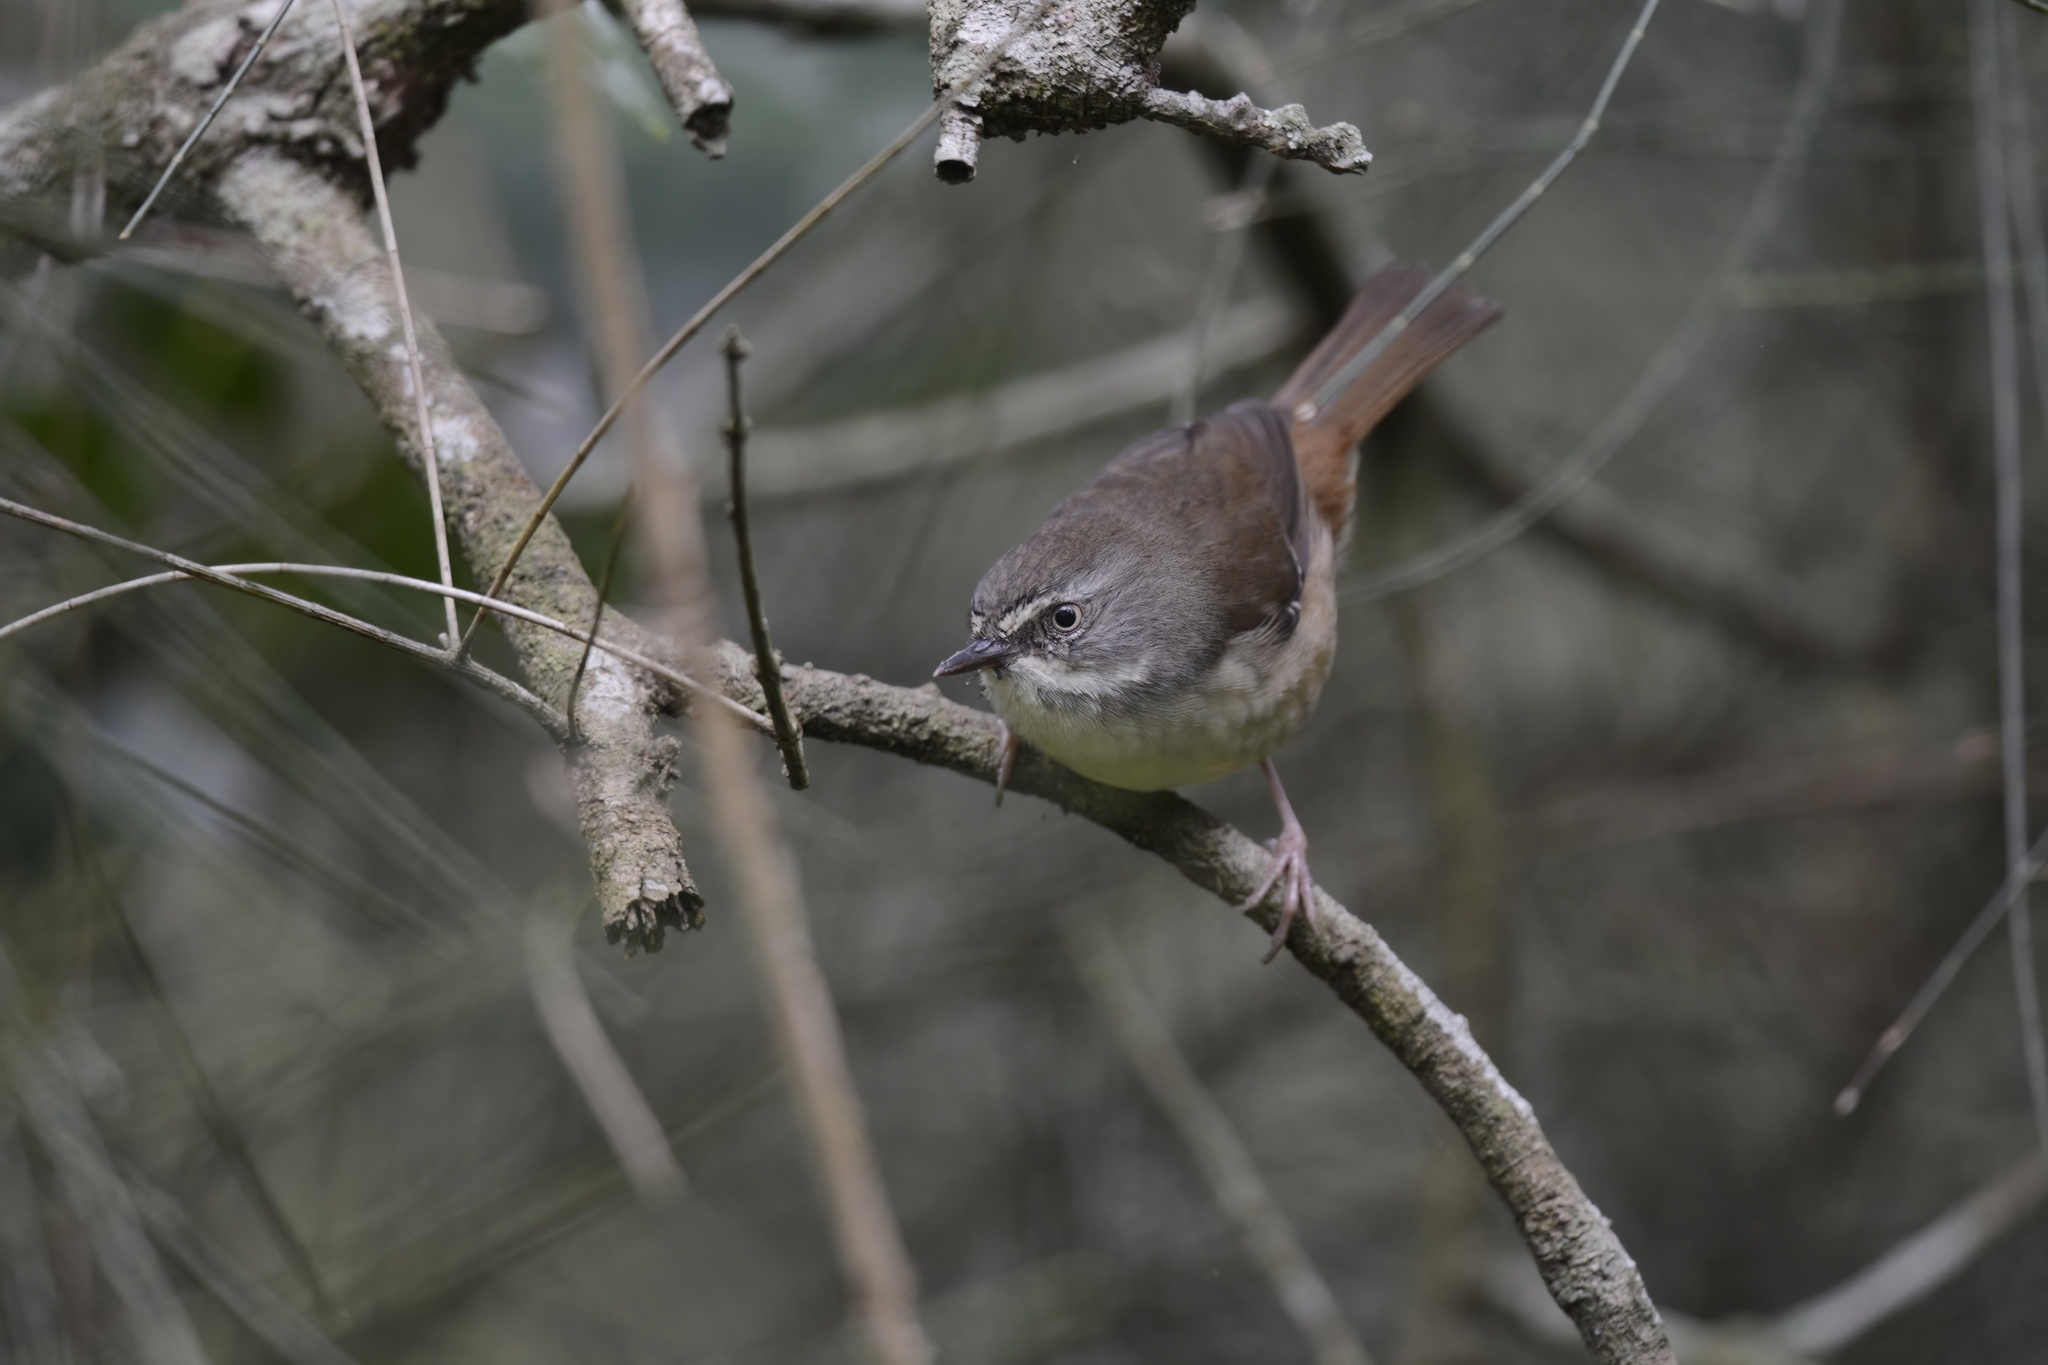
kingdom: Animalia
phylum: Chordata
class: Aves
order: Passeriformes
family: Acanthizidae
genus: Sericornis
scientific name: Sericornis frontalis
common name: White-browed scrubwren
